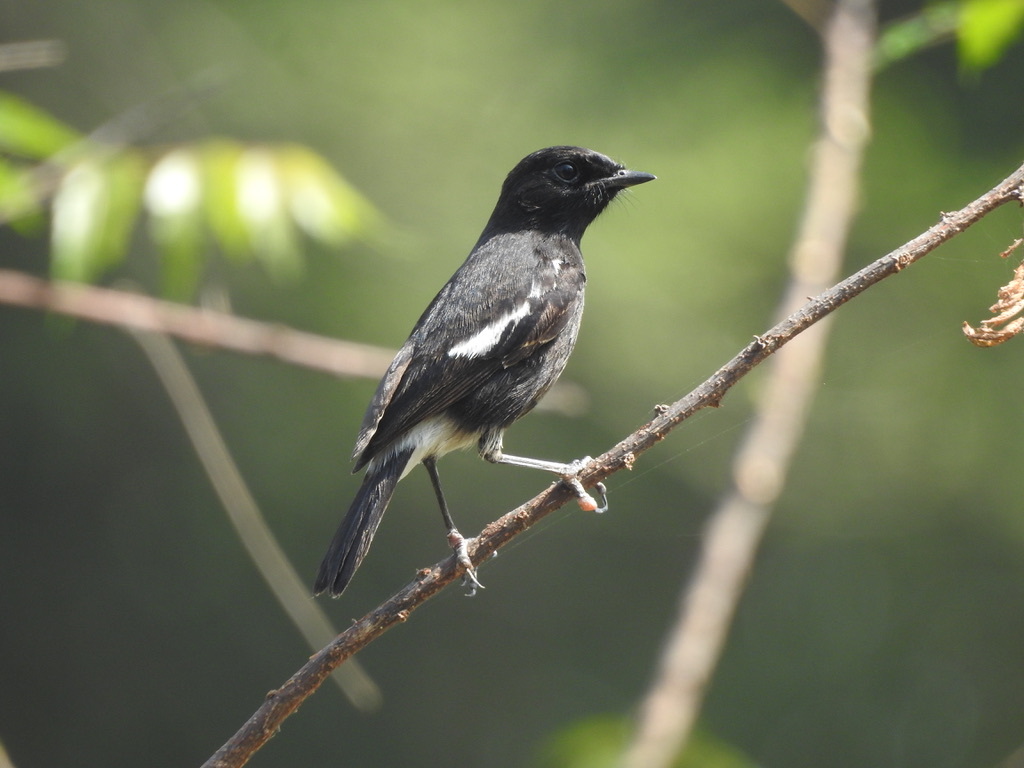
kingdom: Animalia
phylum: Chordata
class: Aves
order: Passeriformes
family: Muscicapidae
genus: Saxicola
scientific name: Saxicola caprata
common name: Pied bush chat
